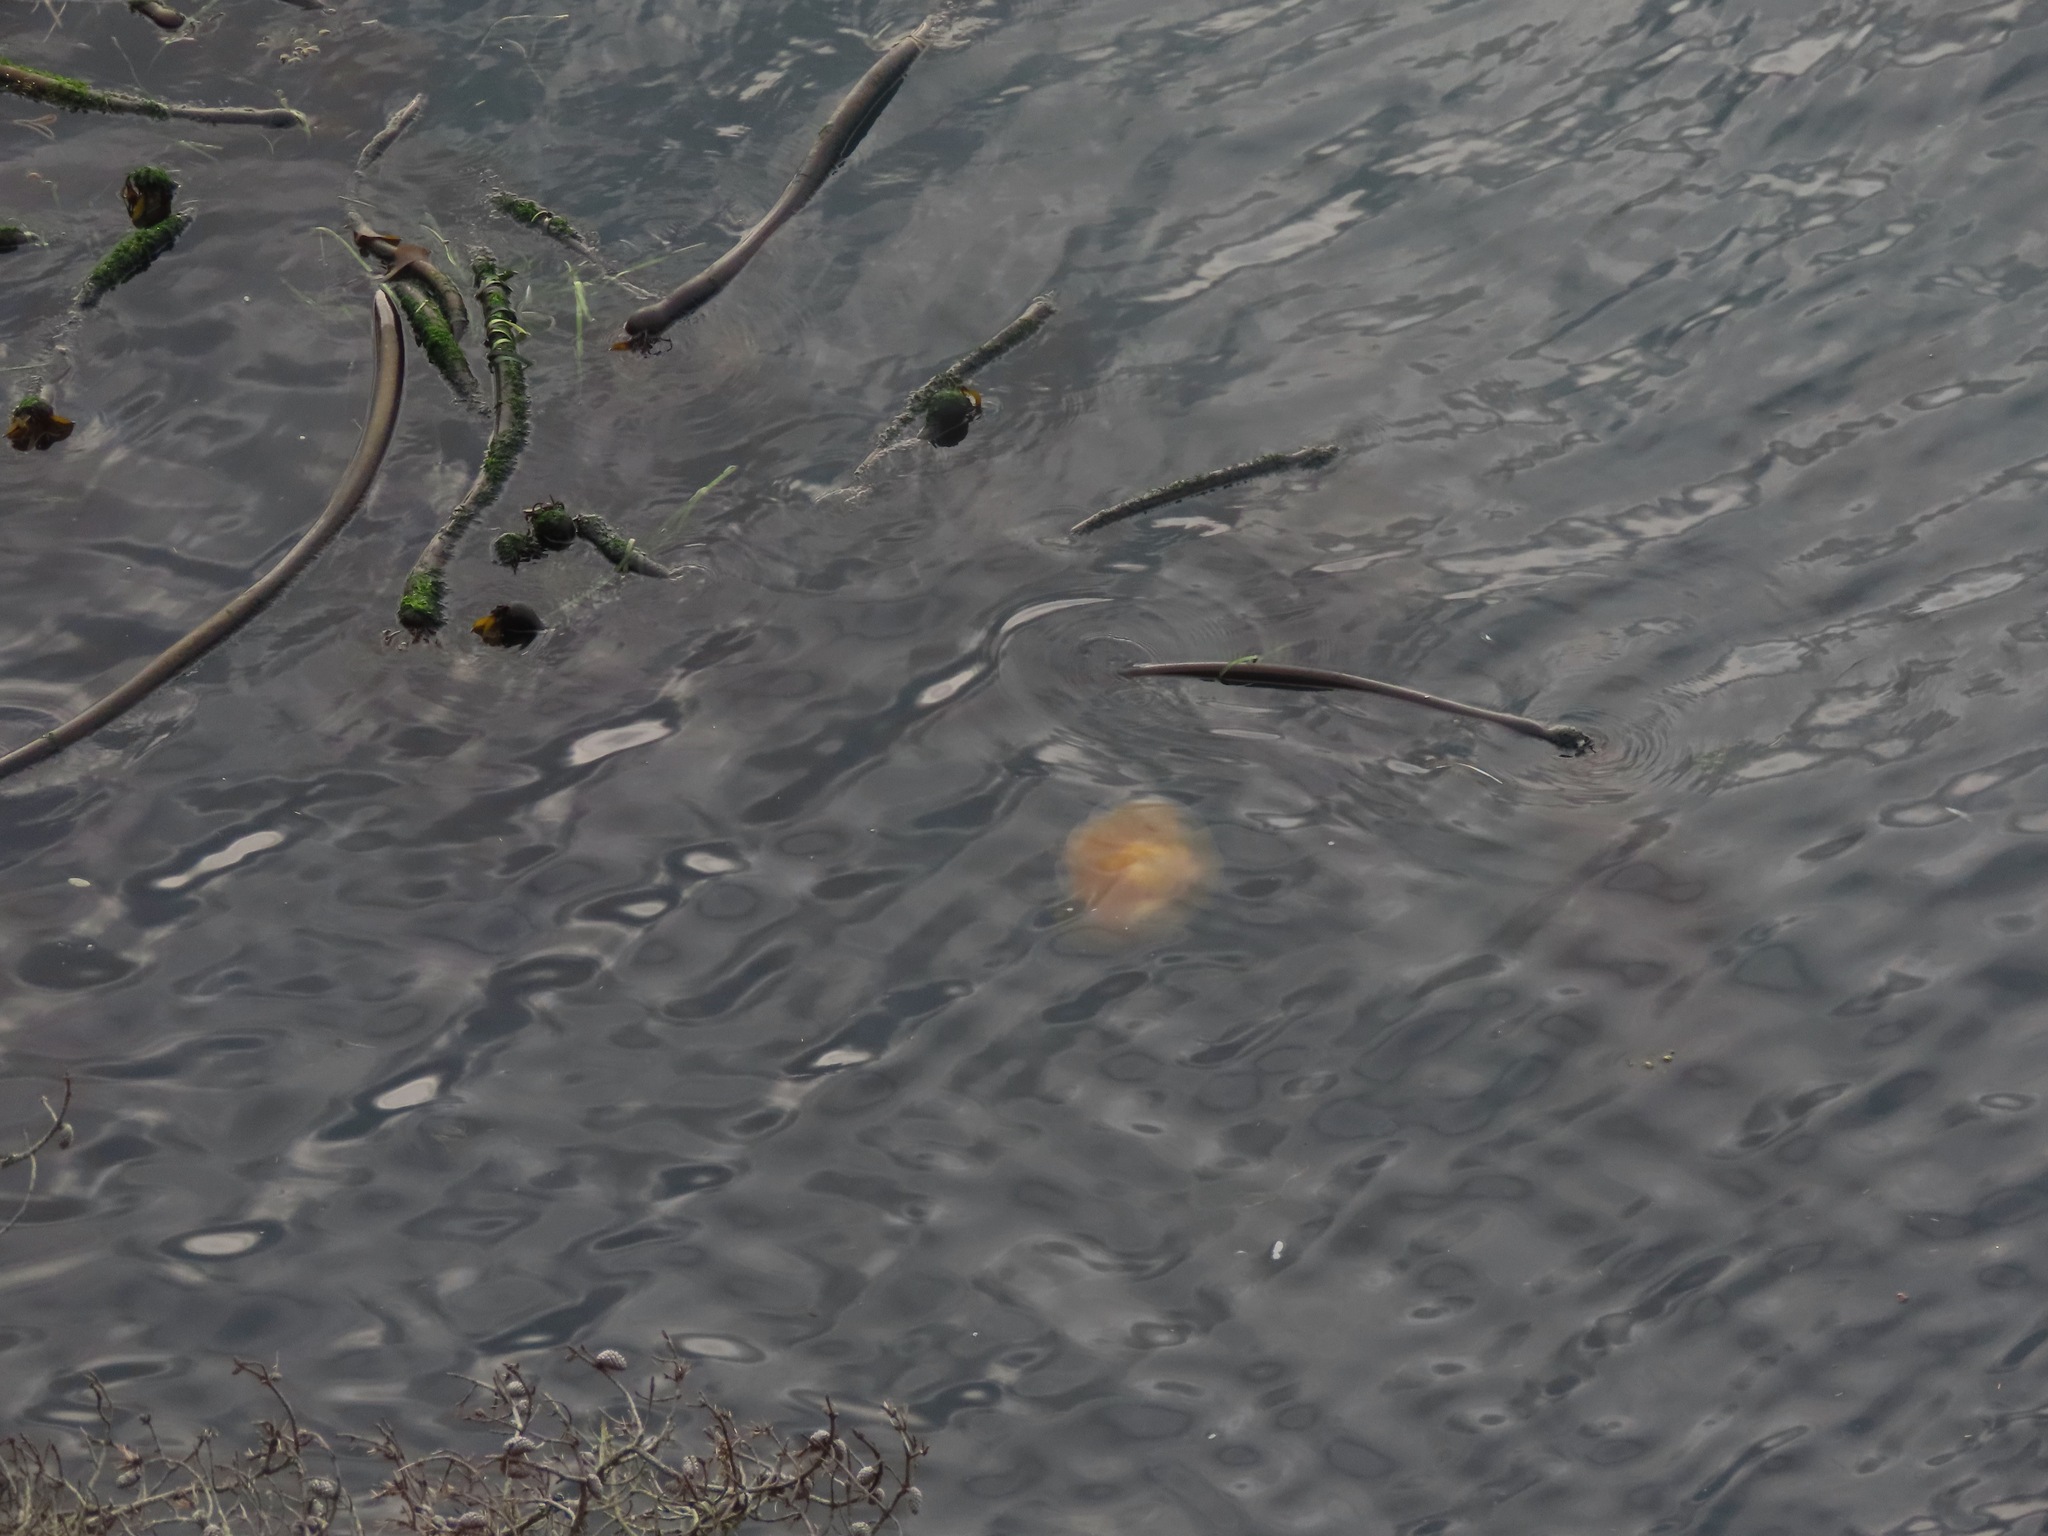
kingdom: Animalia
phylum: Cnidaria
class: Scyphozoa
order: Semaeostomeae
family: Phacellophoridae
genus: Phacellophora
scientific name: Phacellophora camtschatica
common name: Fried-egg jellyfish
